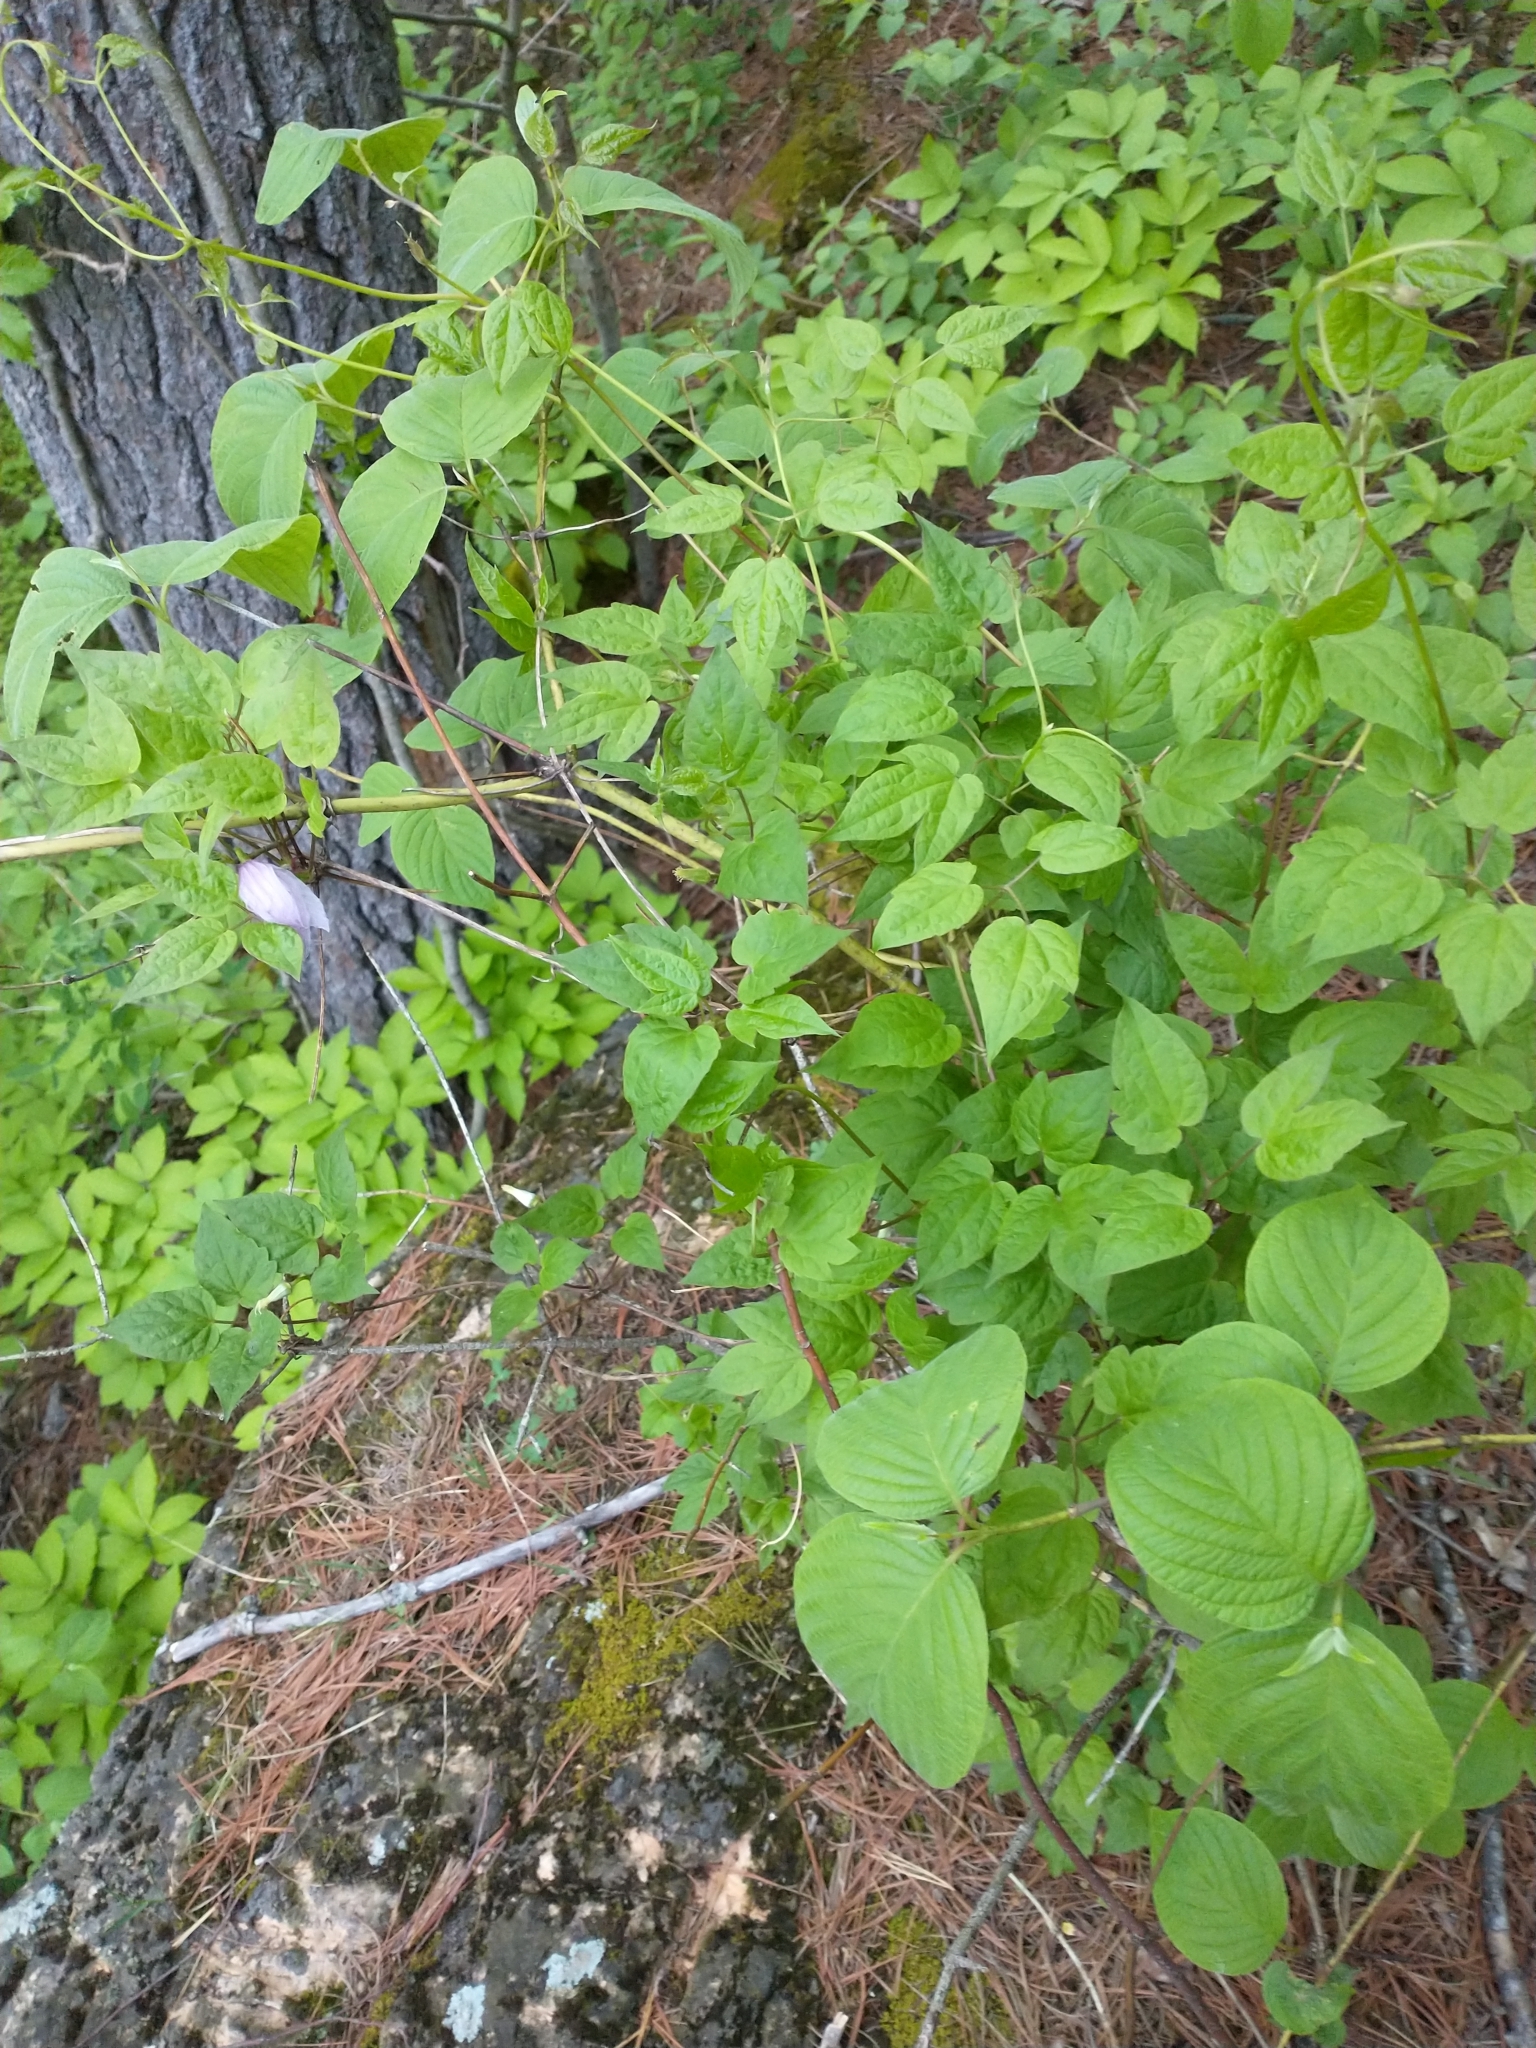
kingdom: Plantae
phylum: Tracheophyta
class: Magnoliopsida
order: Ranunculales
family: Ranunculaceae
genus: Clematis
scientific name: Clematis occidentalis
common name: Purple clematis
